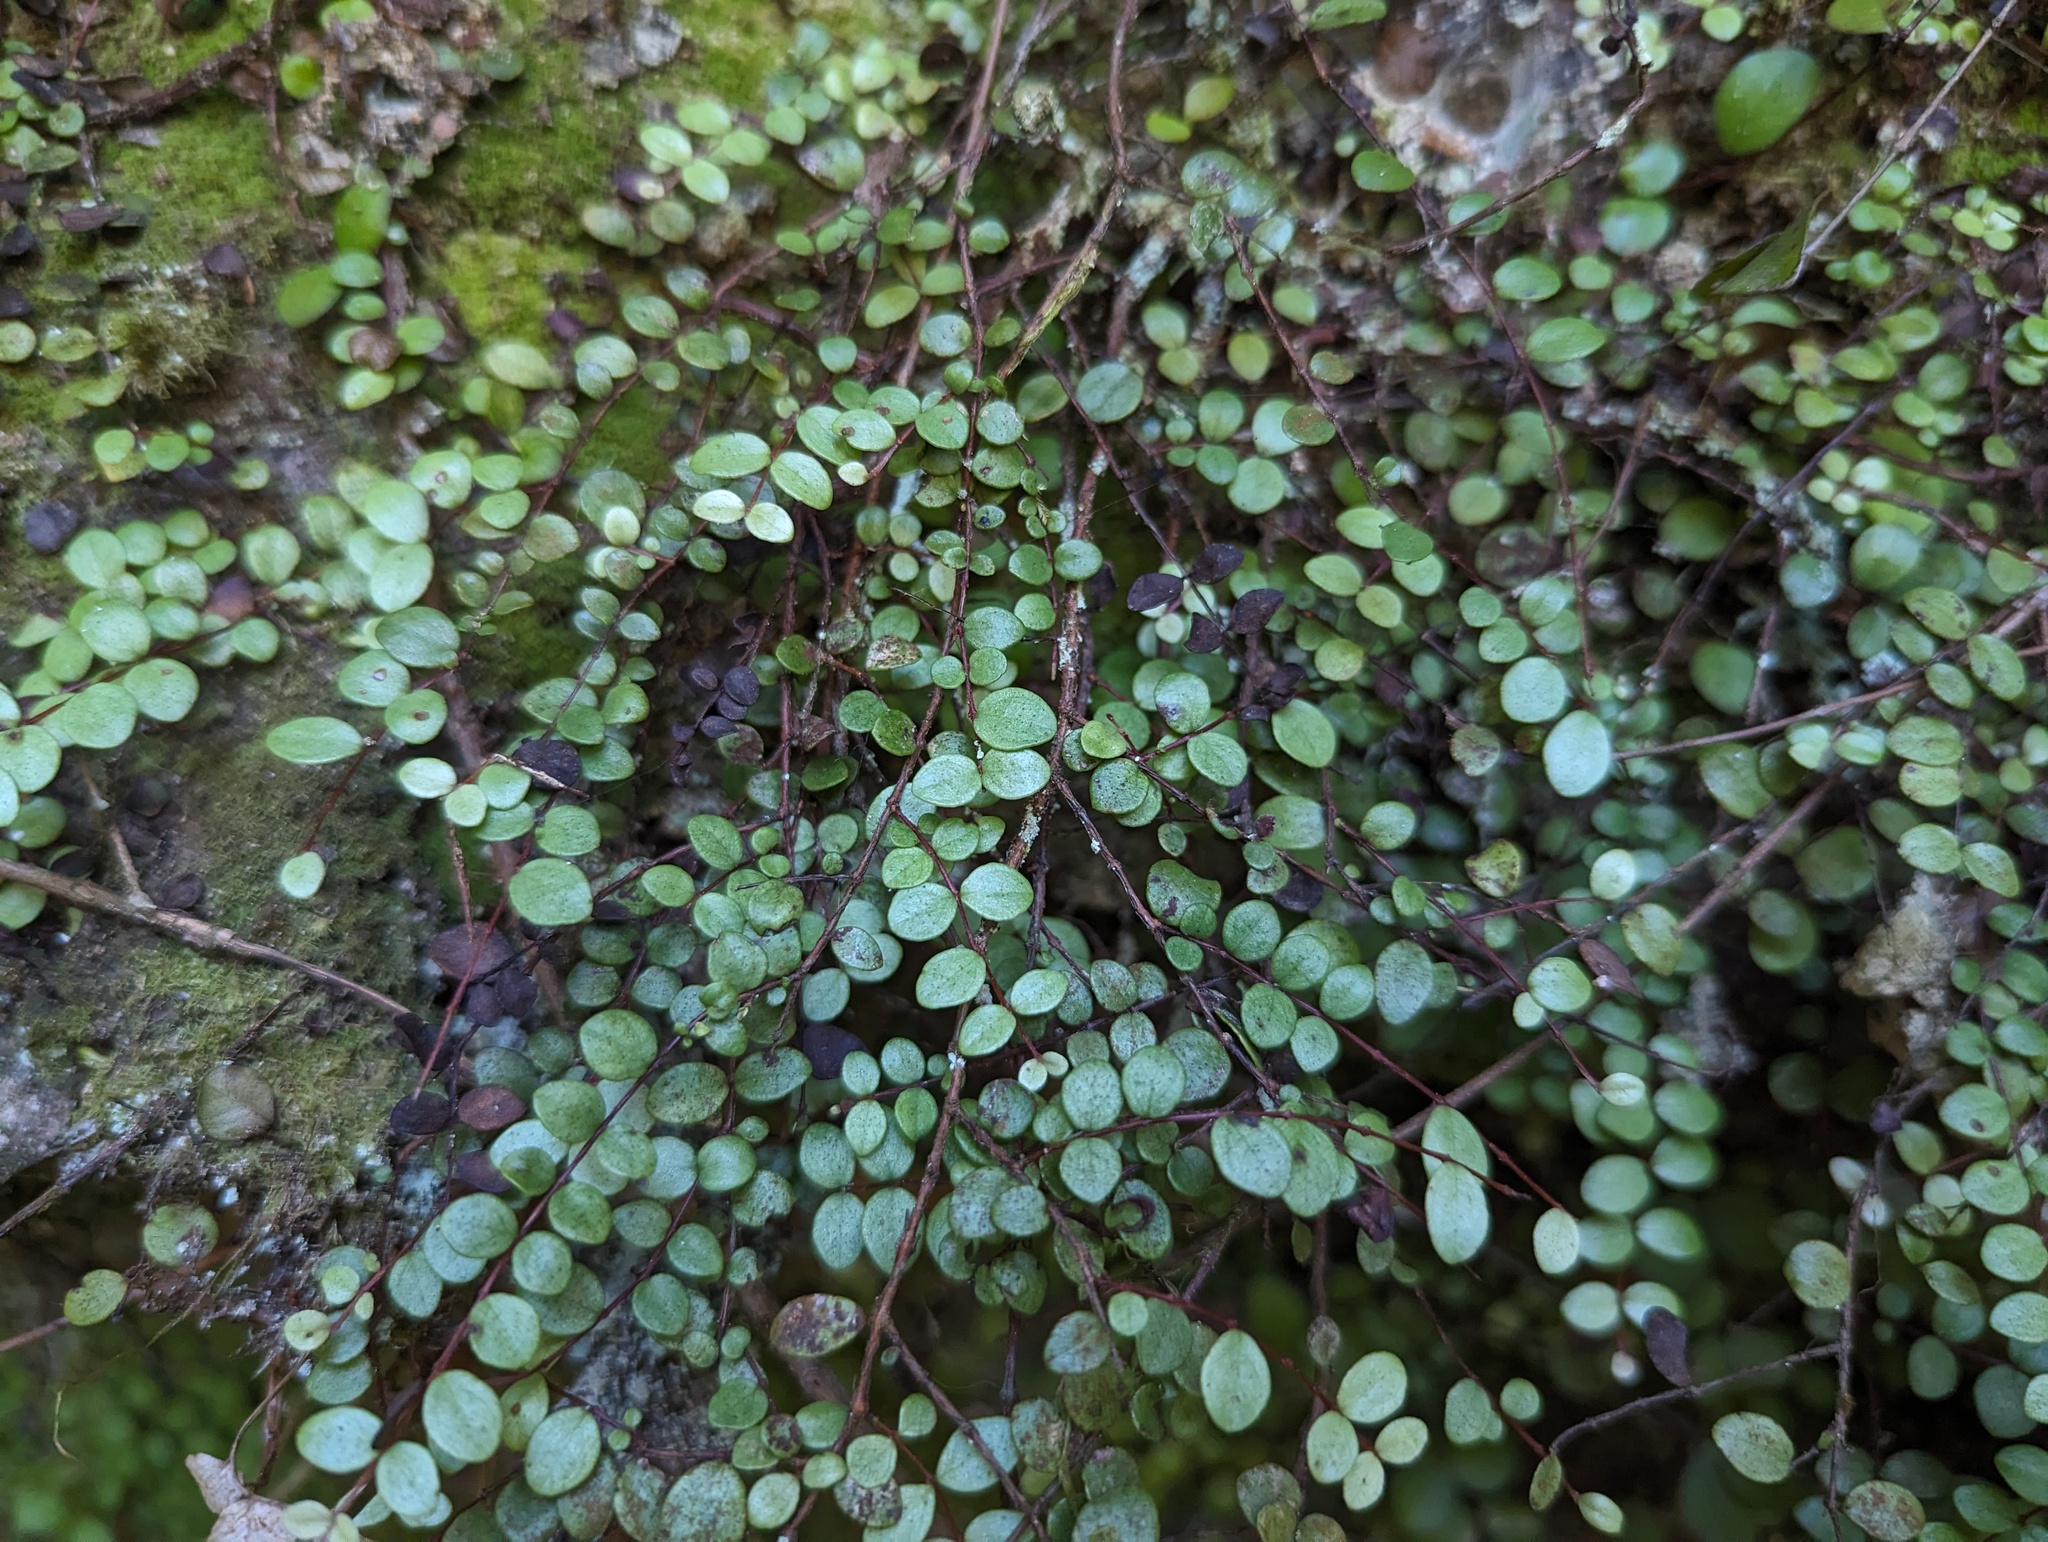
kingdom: Plantae
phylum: Tracheophyta
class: Magnoliopsida
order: Myrtales
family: Myrtaceae
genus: Metrosideros
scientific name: Metrosideros perforata
